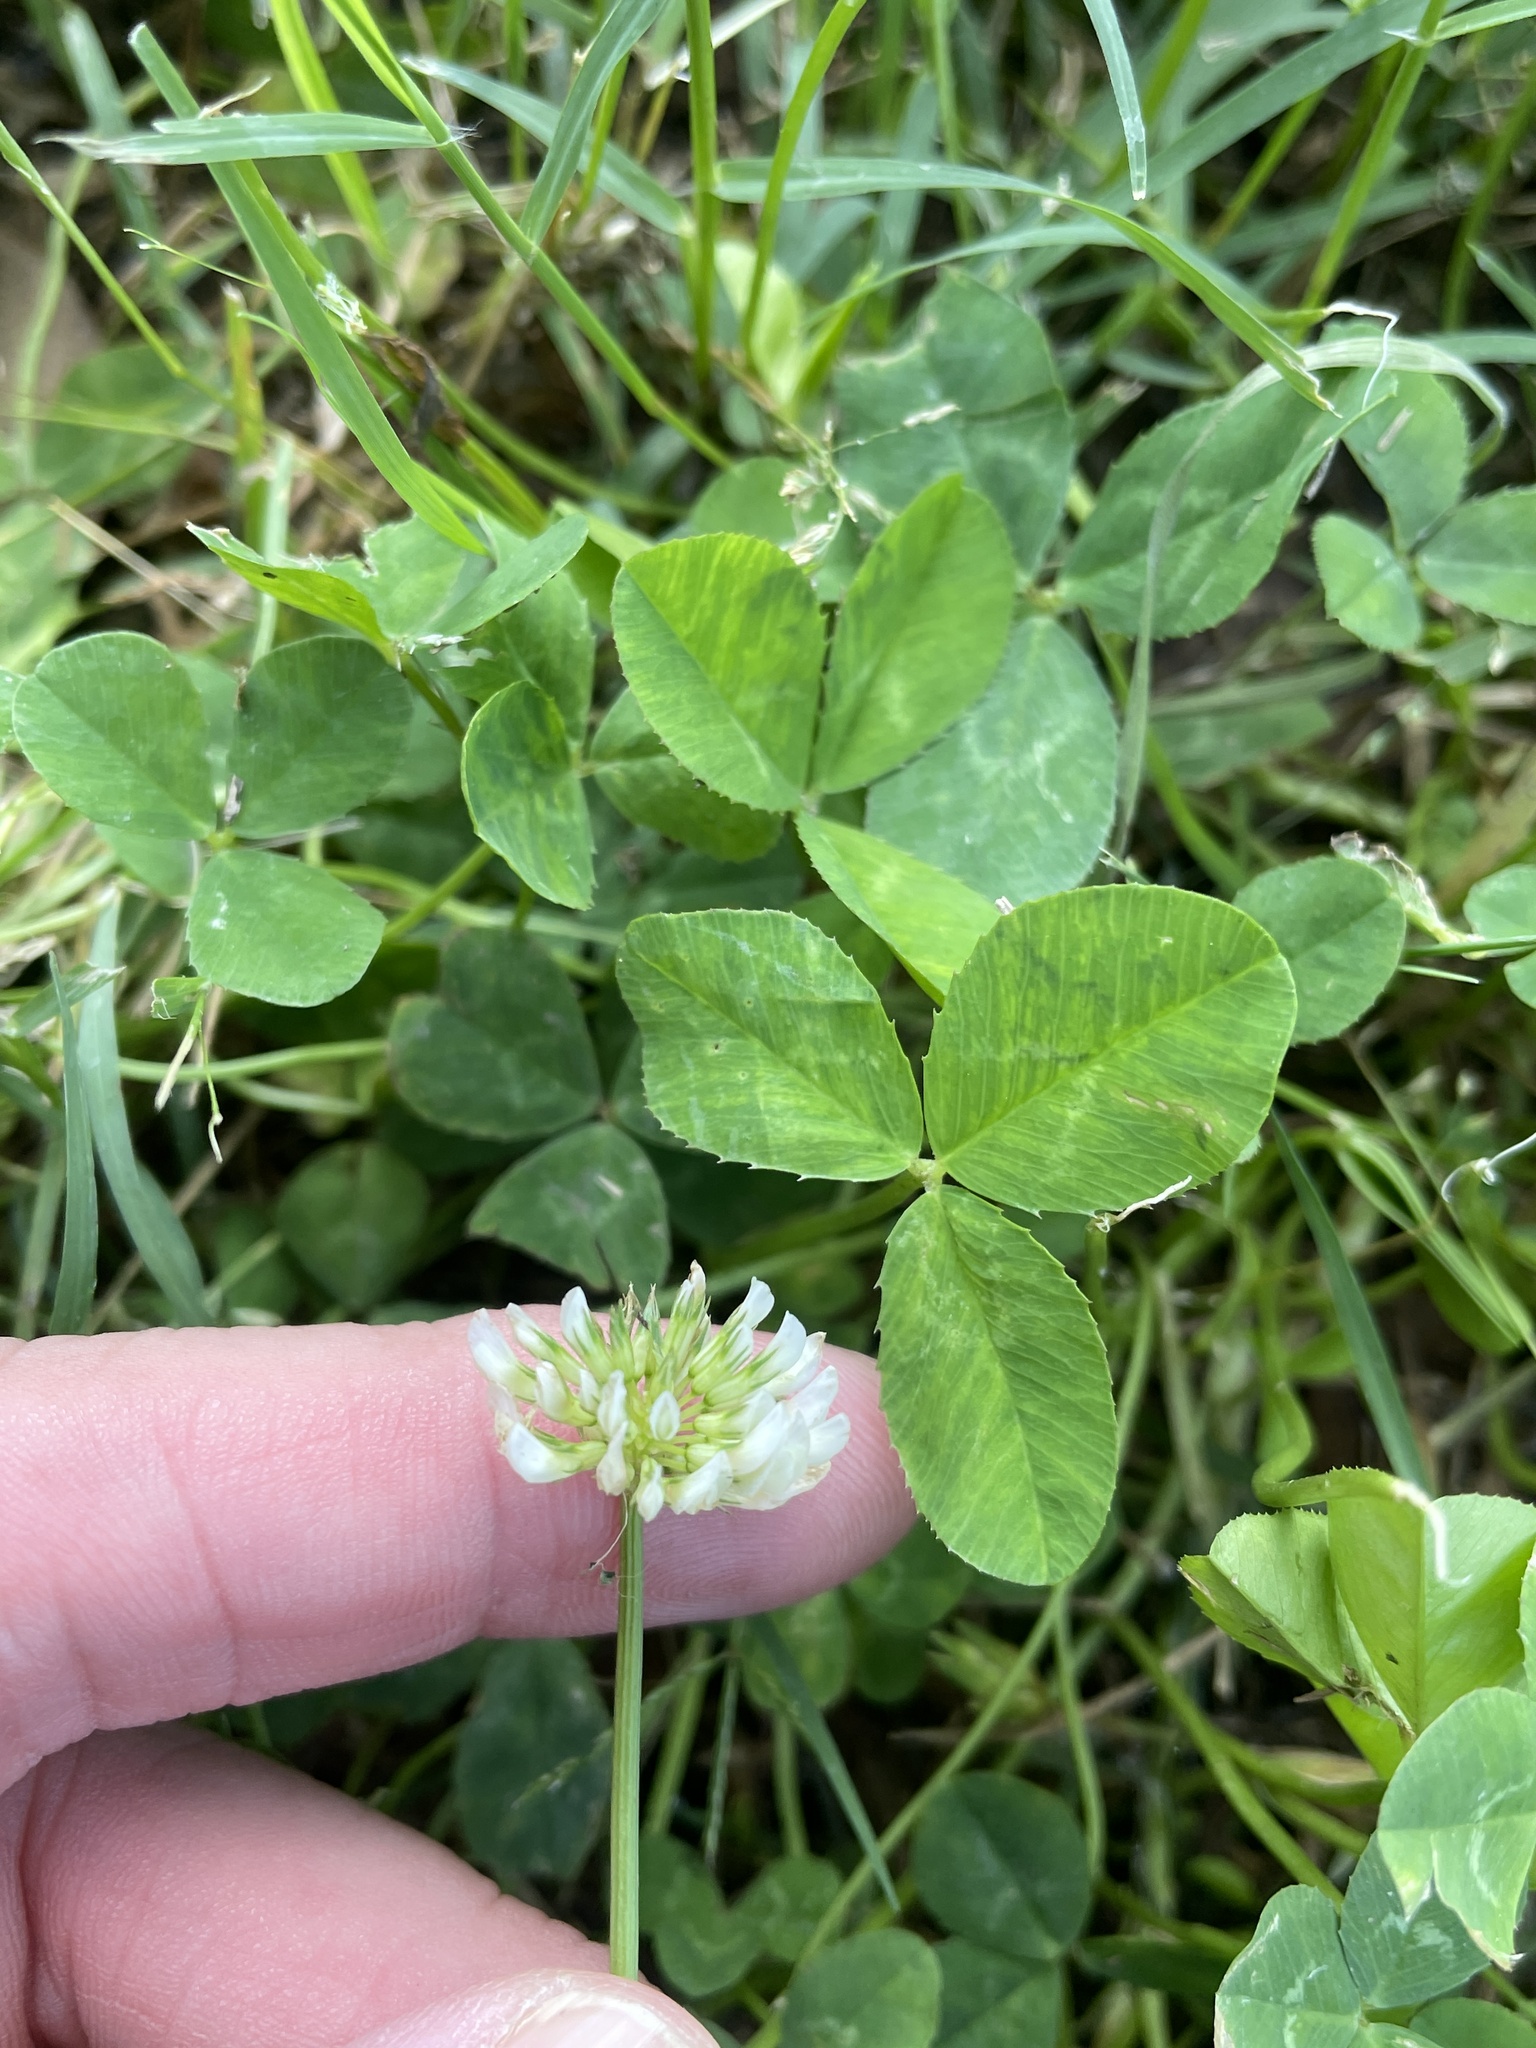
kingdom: Plantae
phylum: Tracheophyta
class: Magnoliopsida
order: Fabales
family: Fabaceae
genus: Trifolium
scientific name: Trifolium repens
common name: White clover
